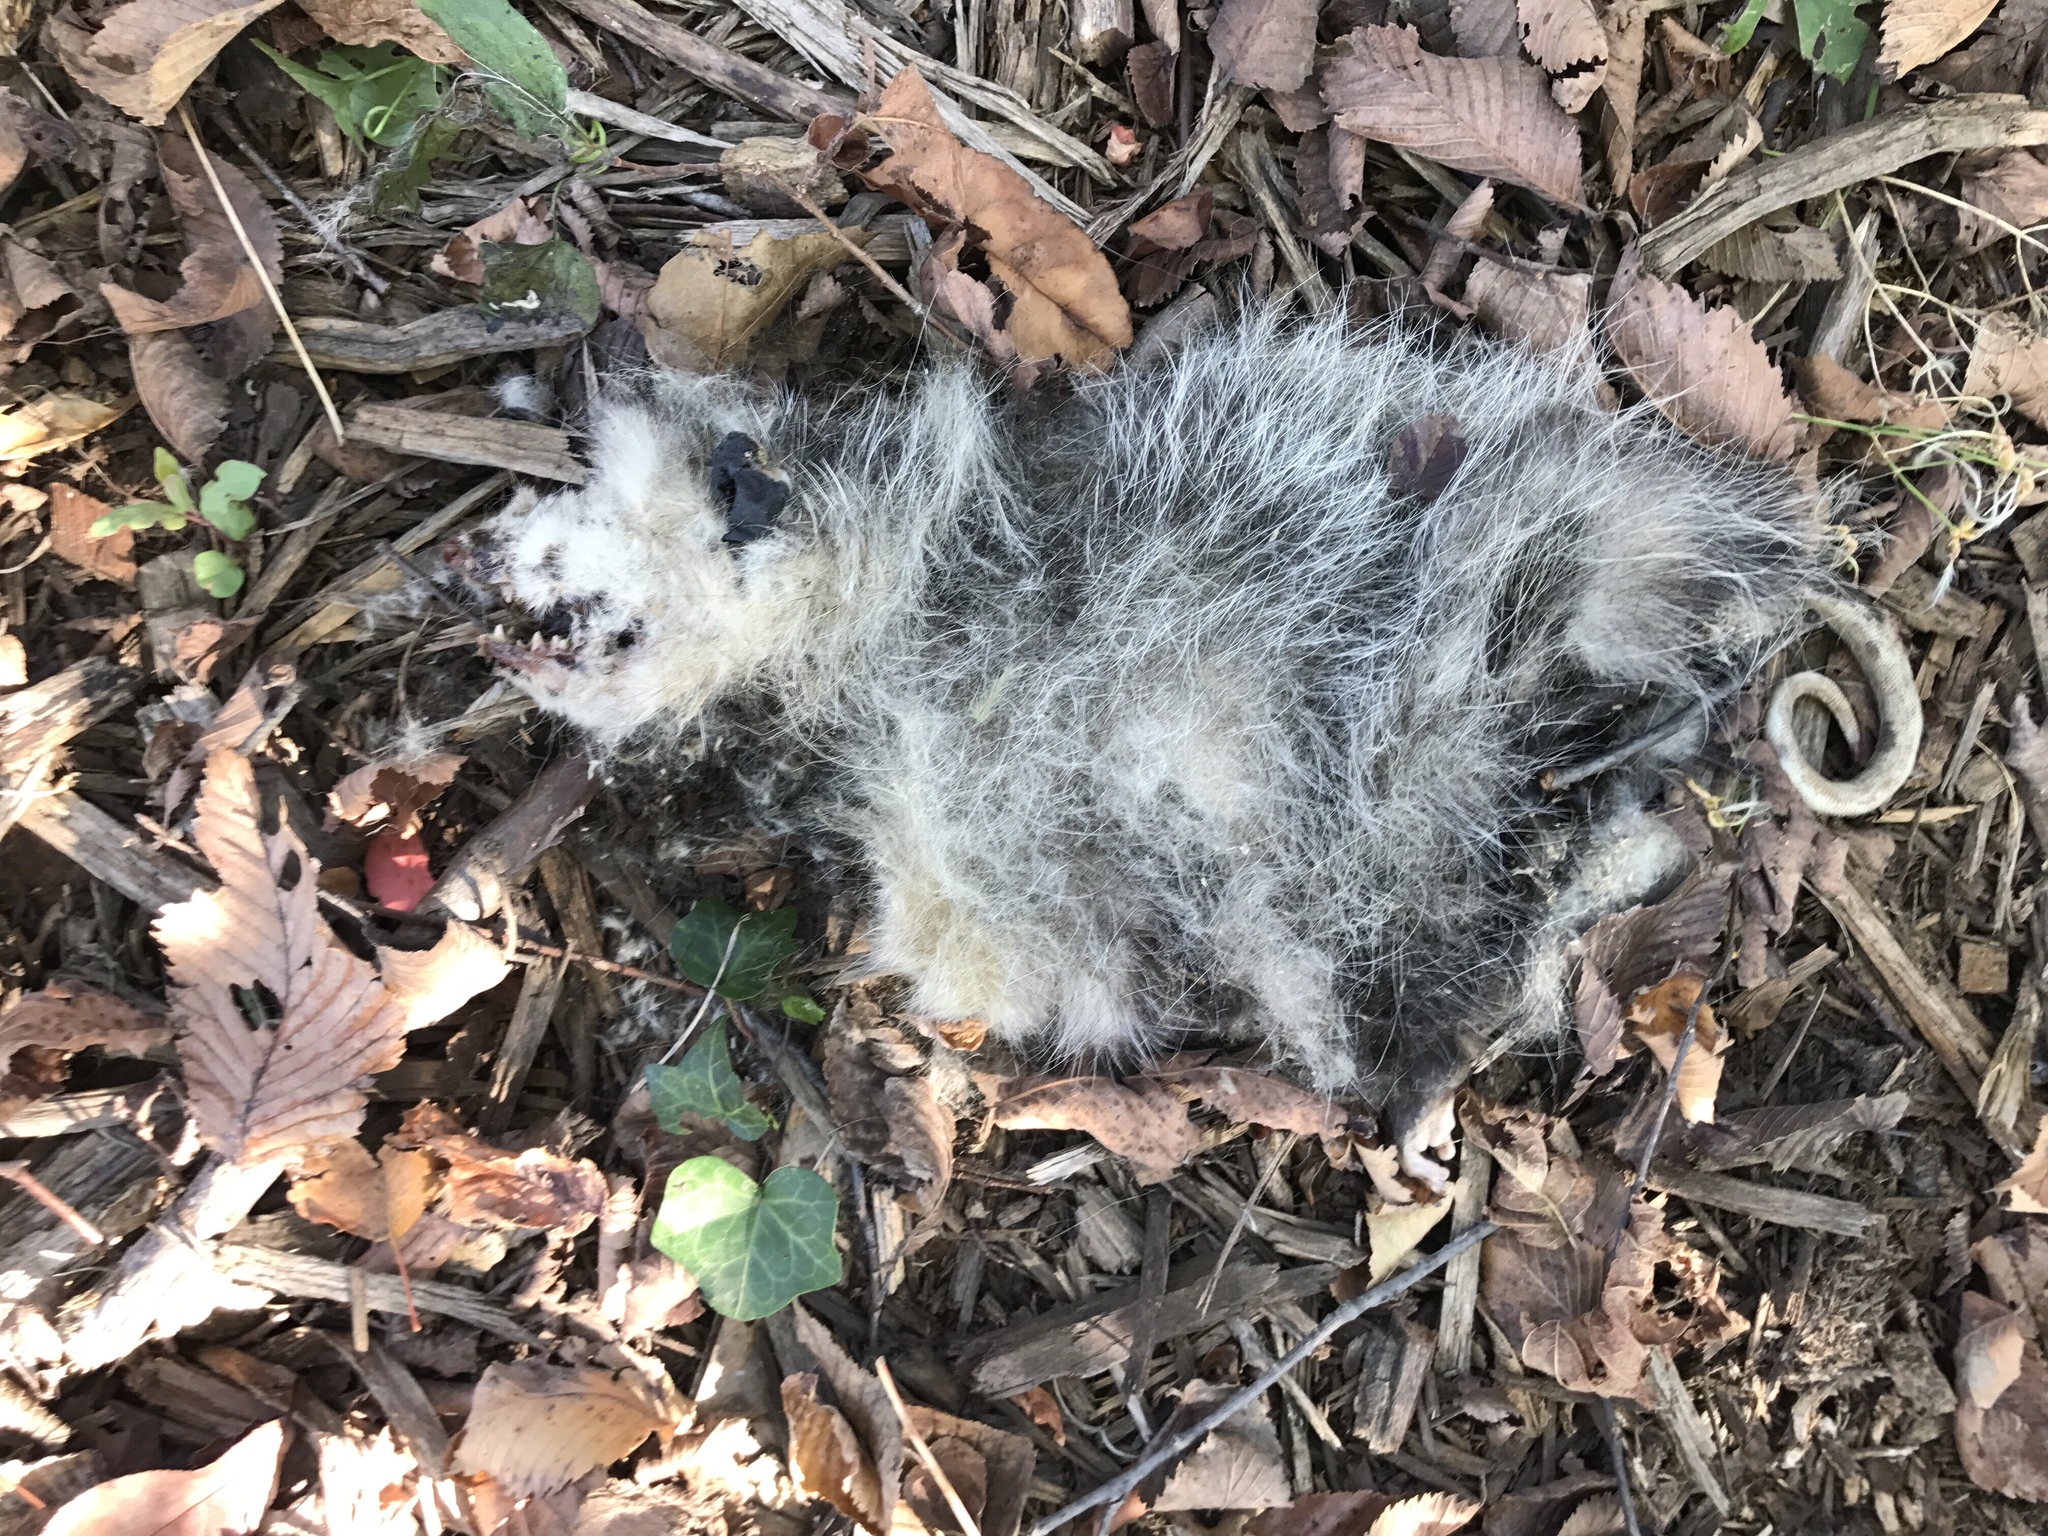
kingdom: Animalia
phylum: Chordata
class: Mammalia
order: Didelphimorphia
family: Didelphidae
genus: Didelphis
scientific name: Didelphis virginiana
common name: Virginia opossum
